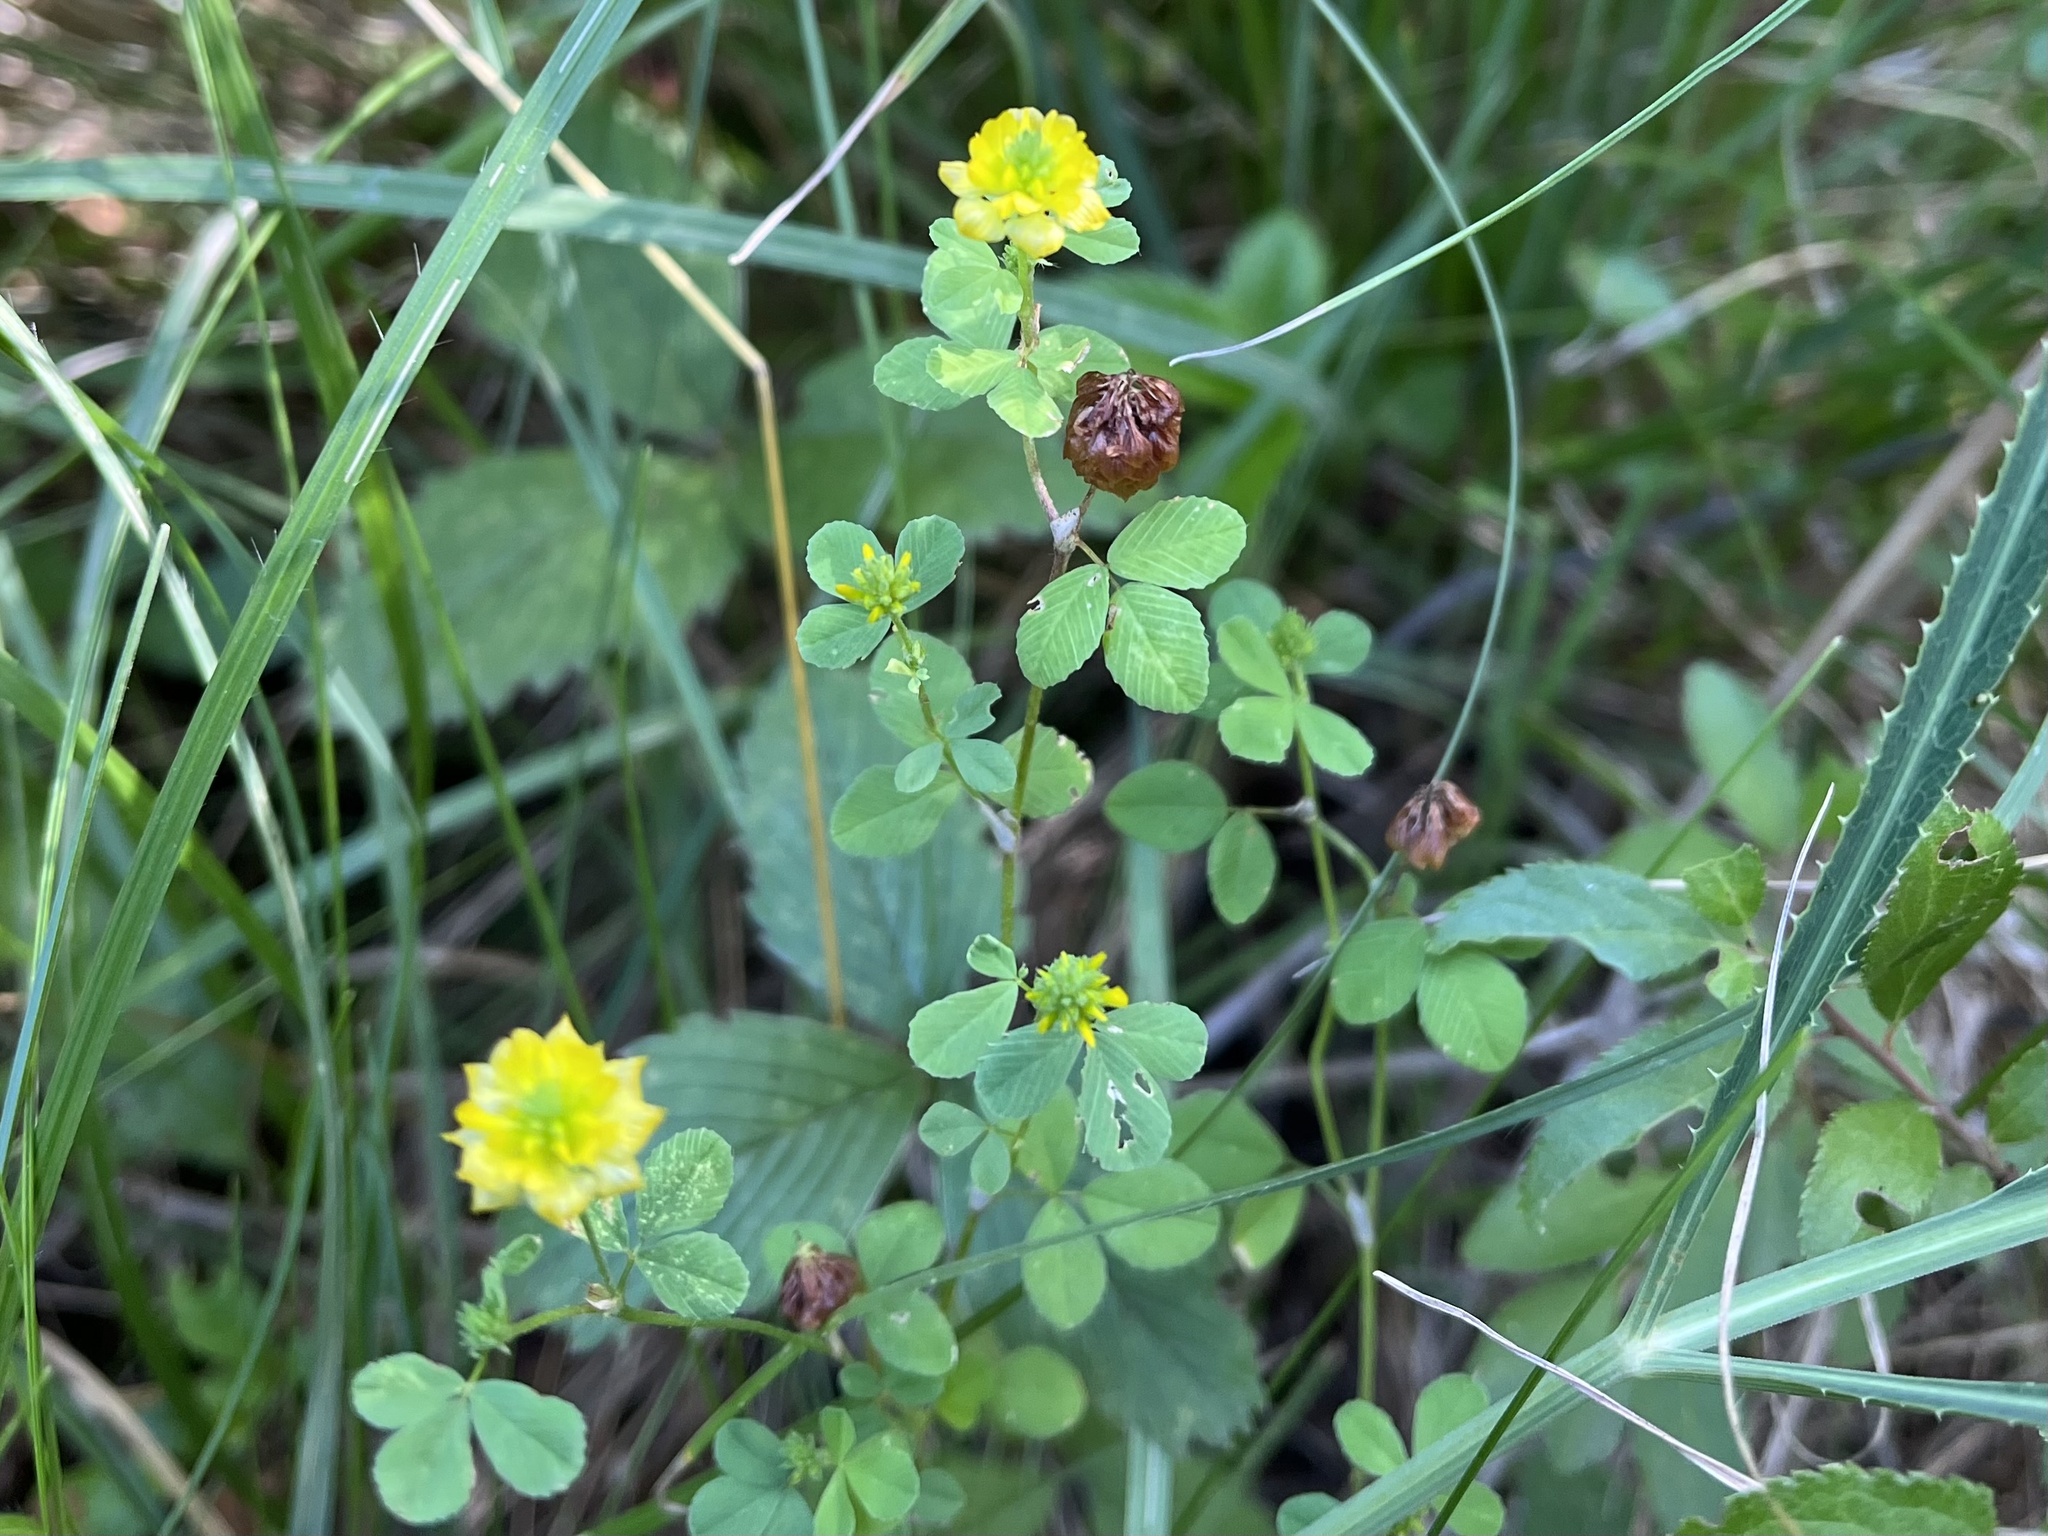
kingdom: Plantae
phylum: Tracheophyta
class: Magnoliopsida
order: Fabales
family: Fabaceae
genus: Trifolium
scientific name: Trifolium campestre
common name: Field clover
